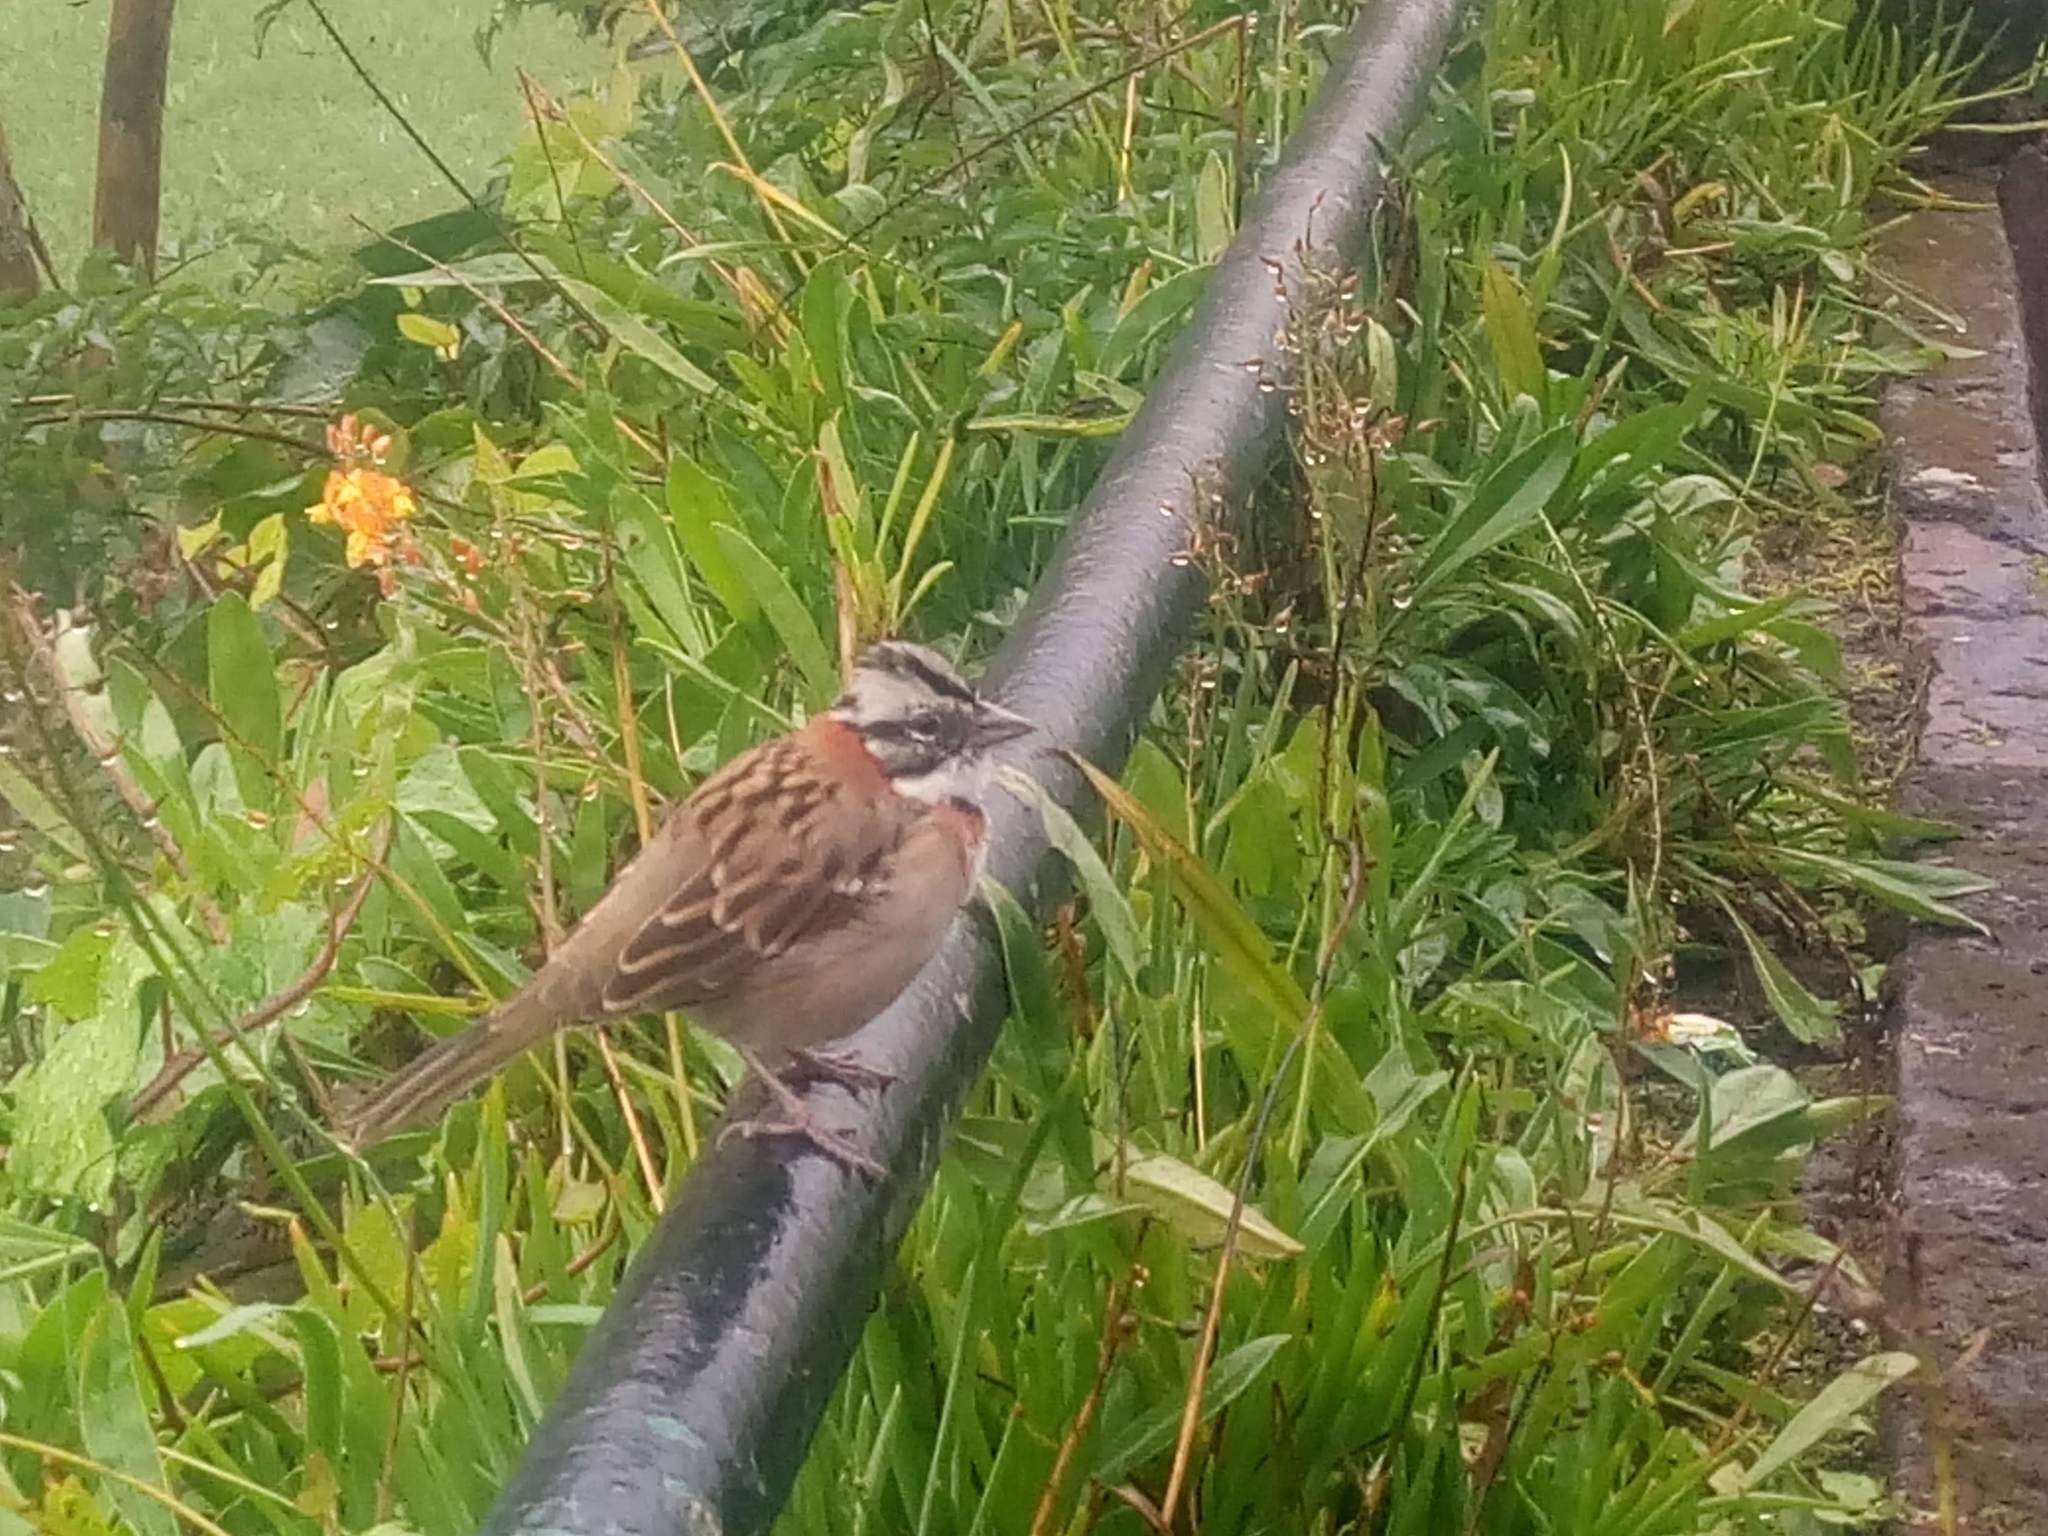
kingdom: Animalia
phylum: Chordata
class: Aves
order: Passeriformes
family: Passerellidae
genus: Zonotrichia
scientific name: Zonotrichia capensis
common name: Rufous-collared sparrow
